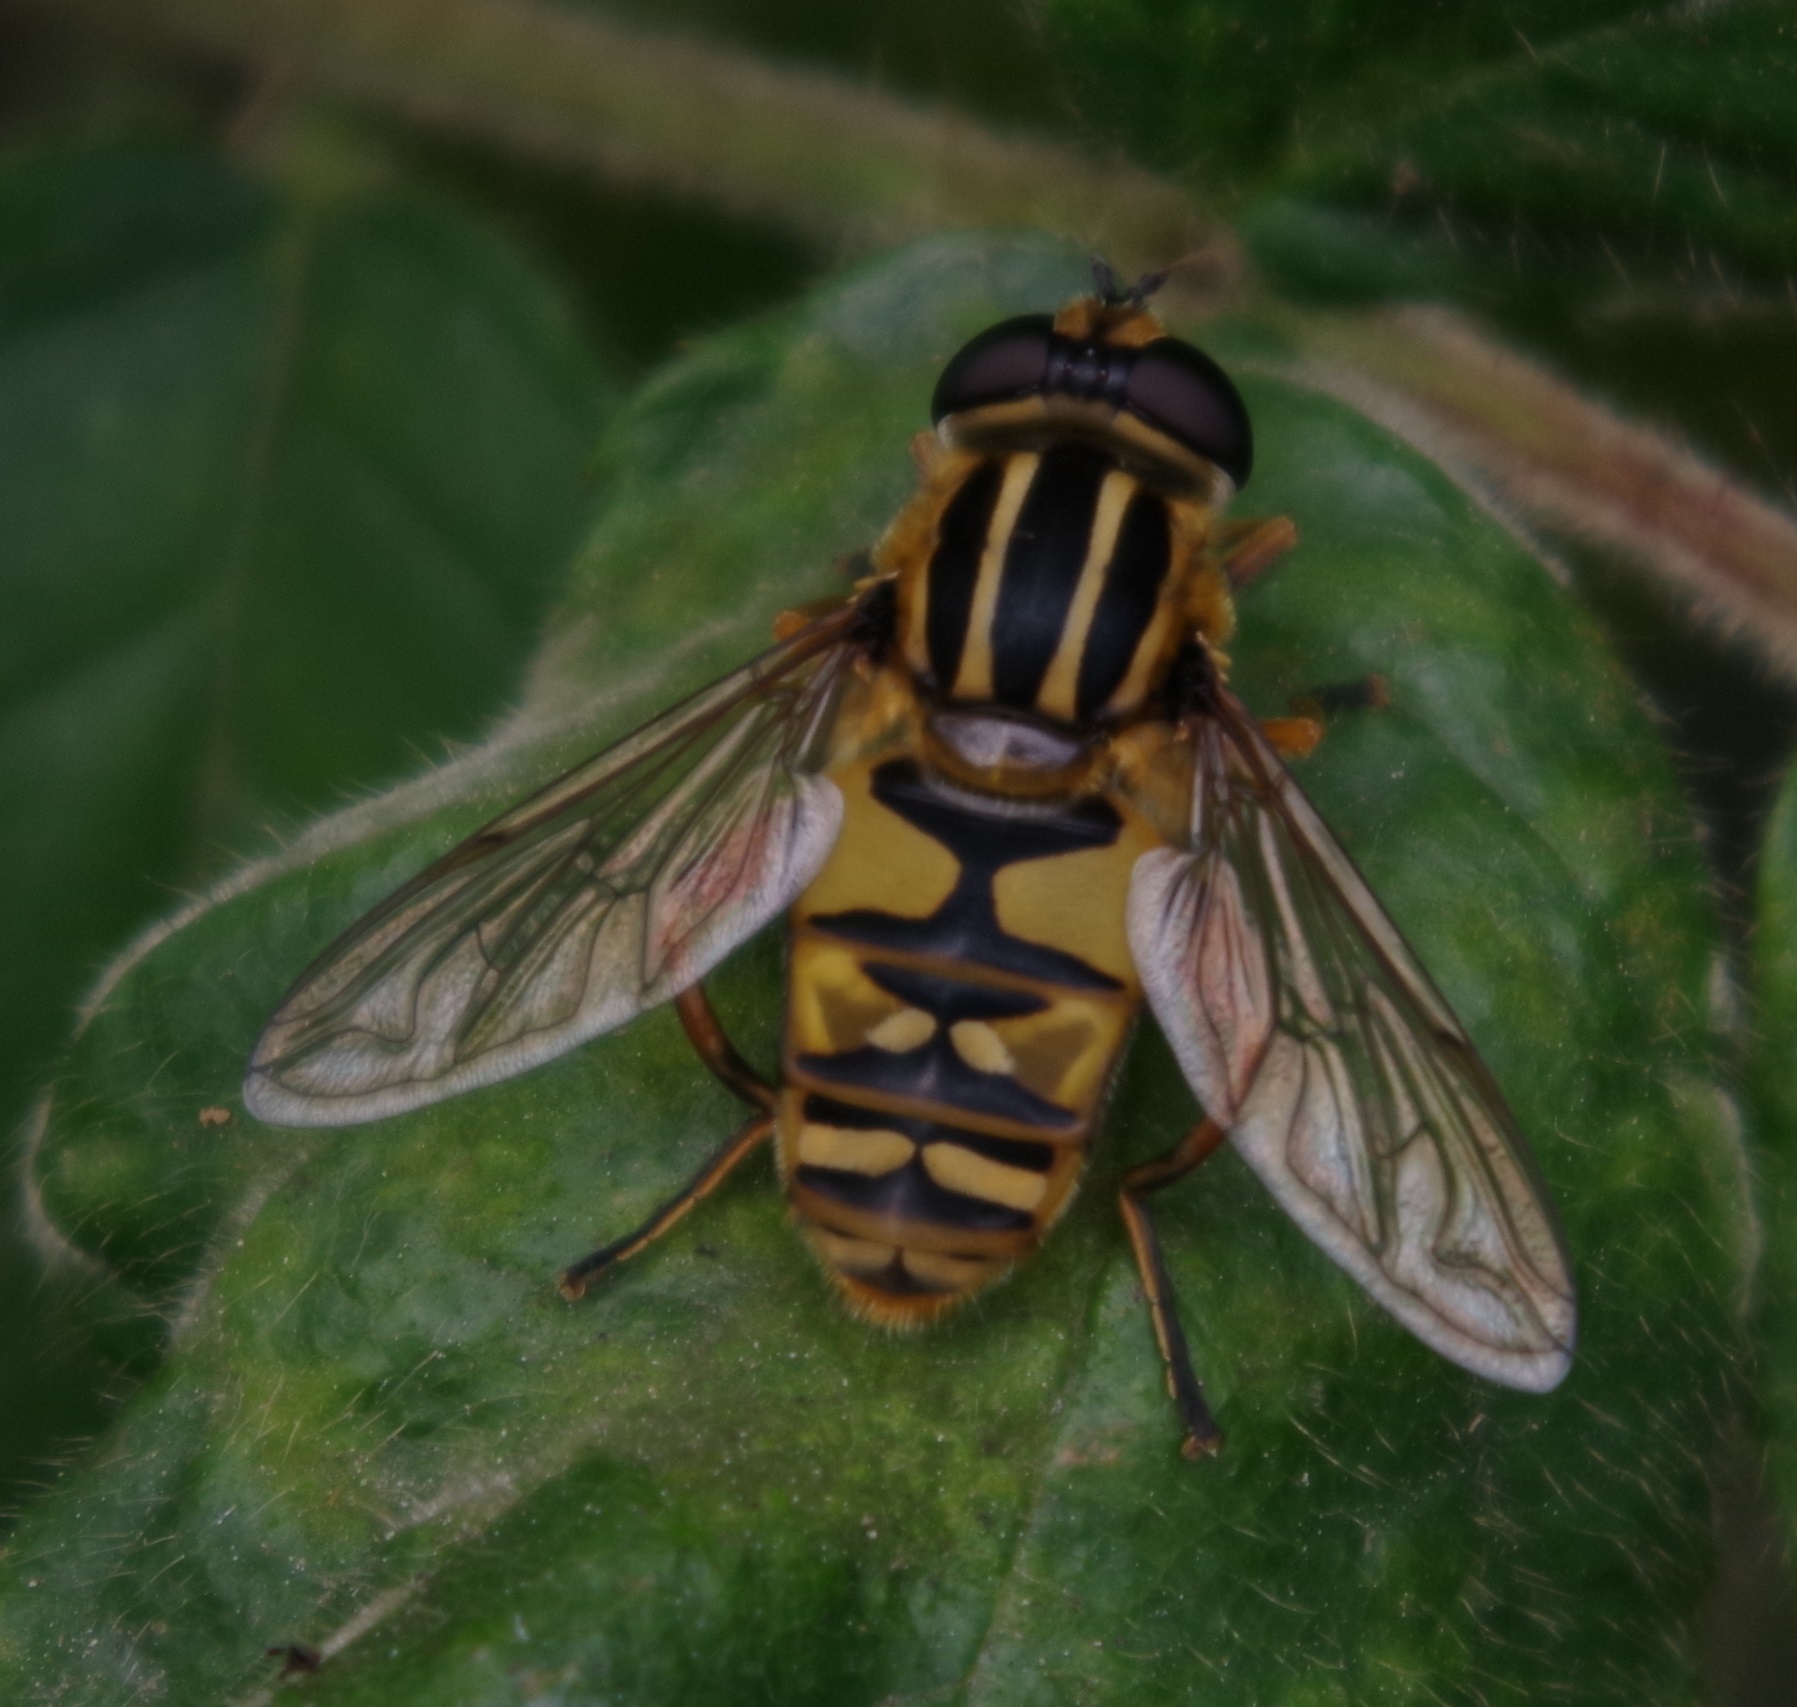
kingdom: Animalia
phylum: Arthropoda
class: Insecta
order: Diptera
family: Syrphidae
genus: Helophilus
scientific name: Helophilus pendulus
